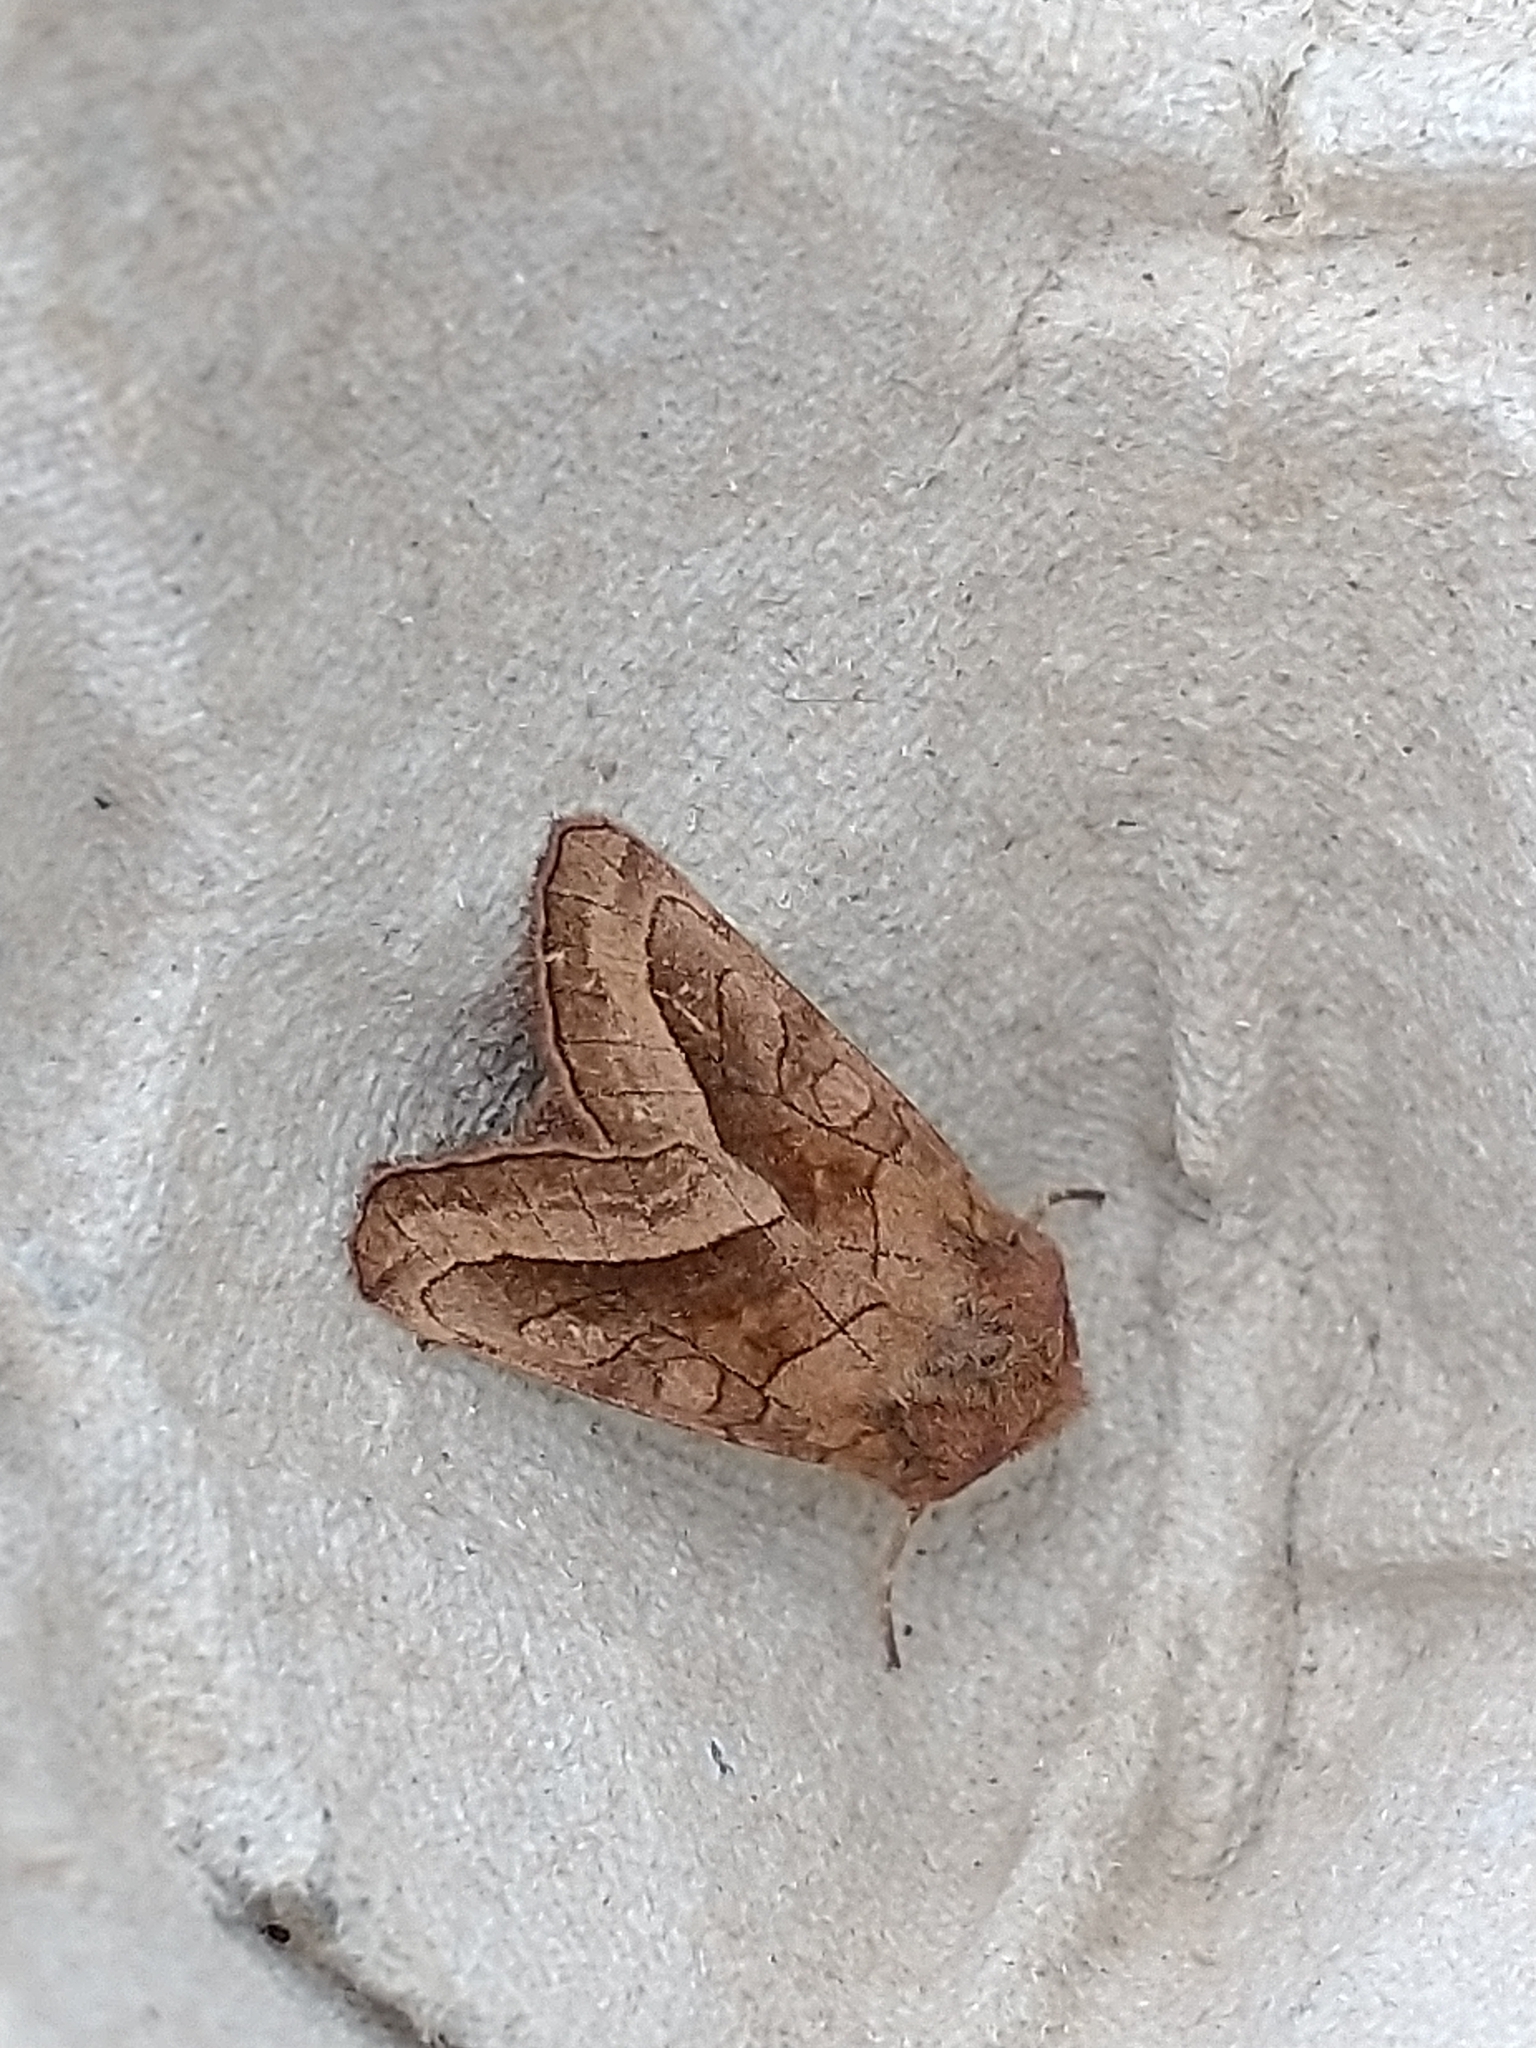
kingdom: Animalia
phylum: Arthropoda
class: Insecta
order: Lepidoptera
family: Noctuidae
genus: Hydraecia
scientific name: Hydraecia micacea
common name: Rosy rustic
